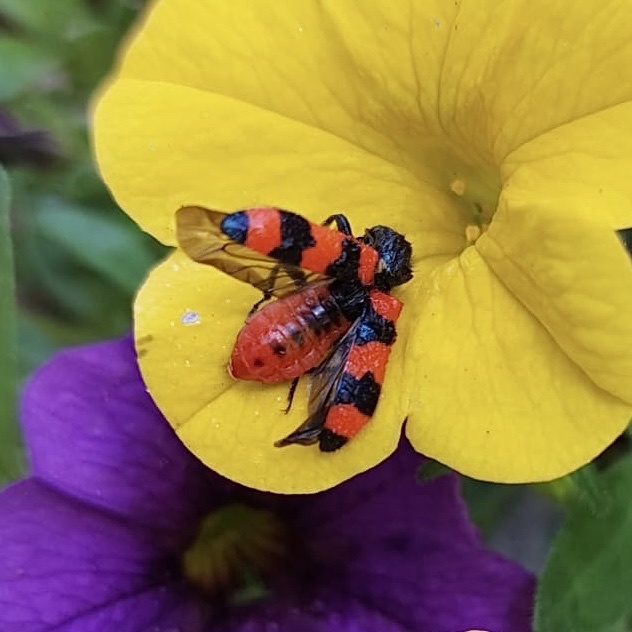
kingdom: Animalia
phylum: Arthropoda
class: Insecta
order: Coleoptera
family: Cleridae
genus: Trichodes
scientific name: Trichodes apiarius
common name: Bee-eating beetle
